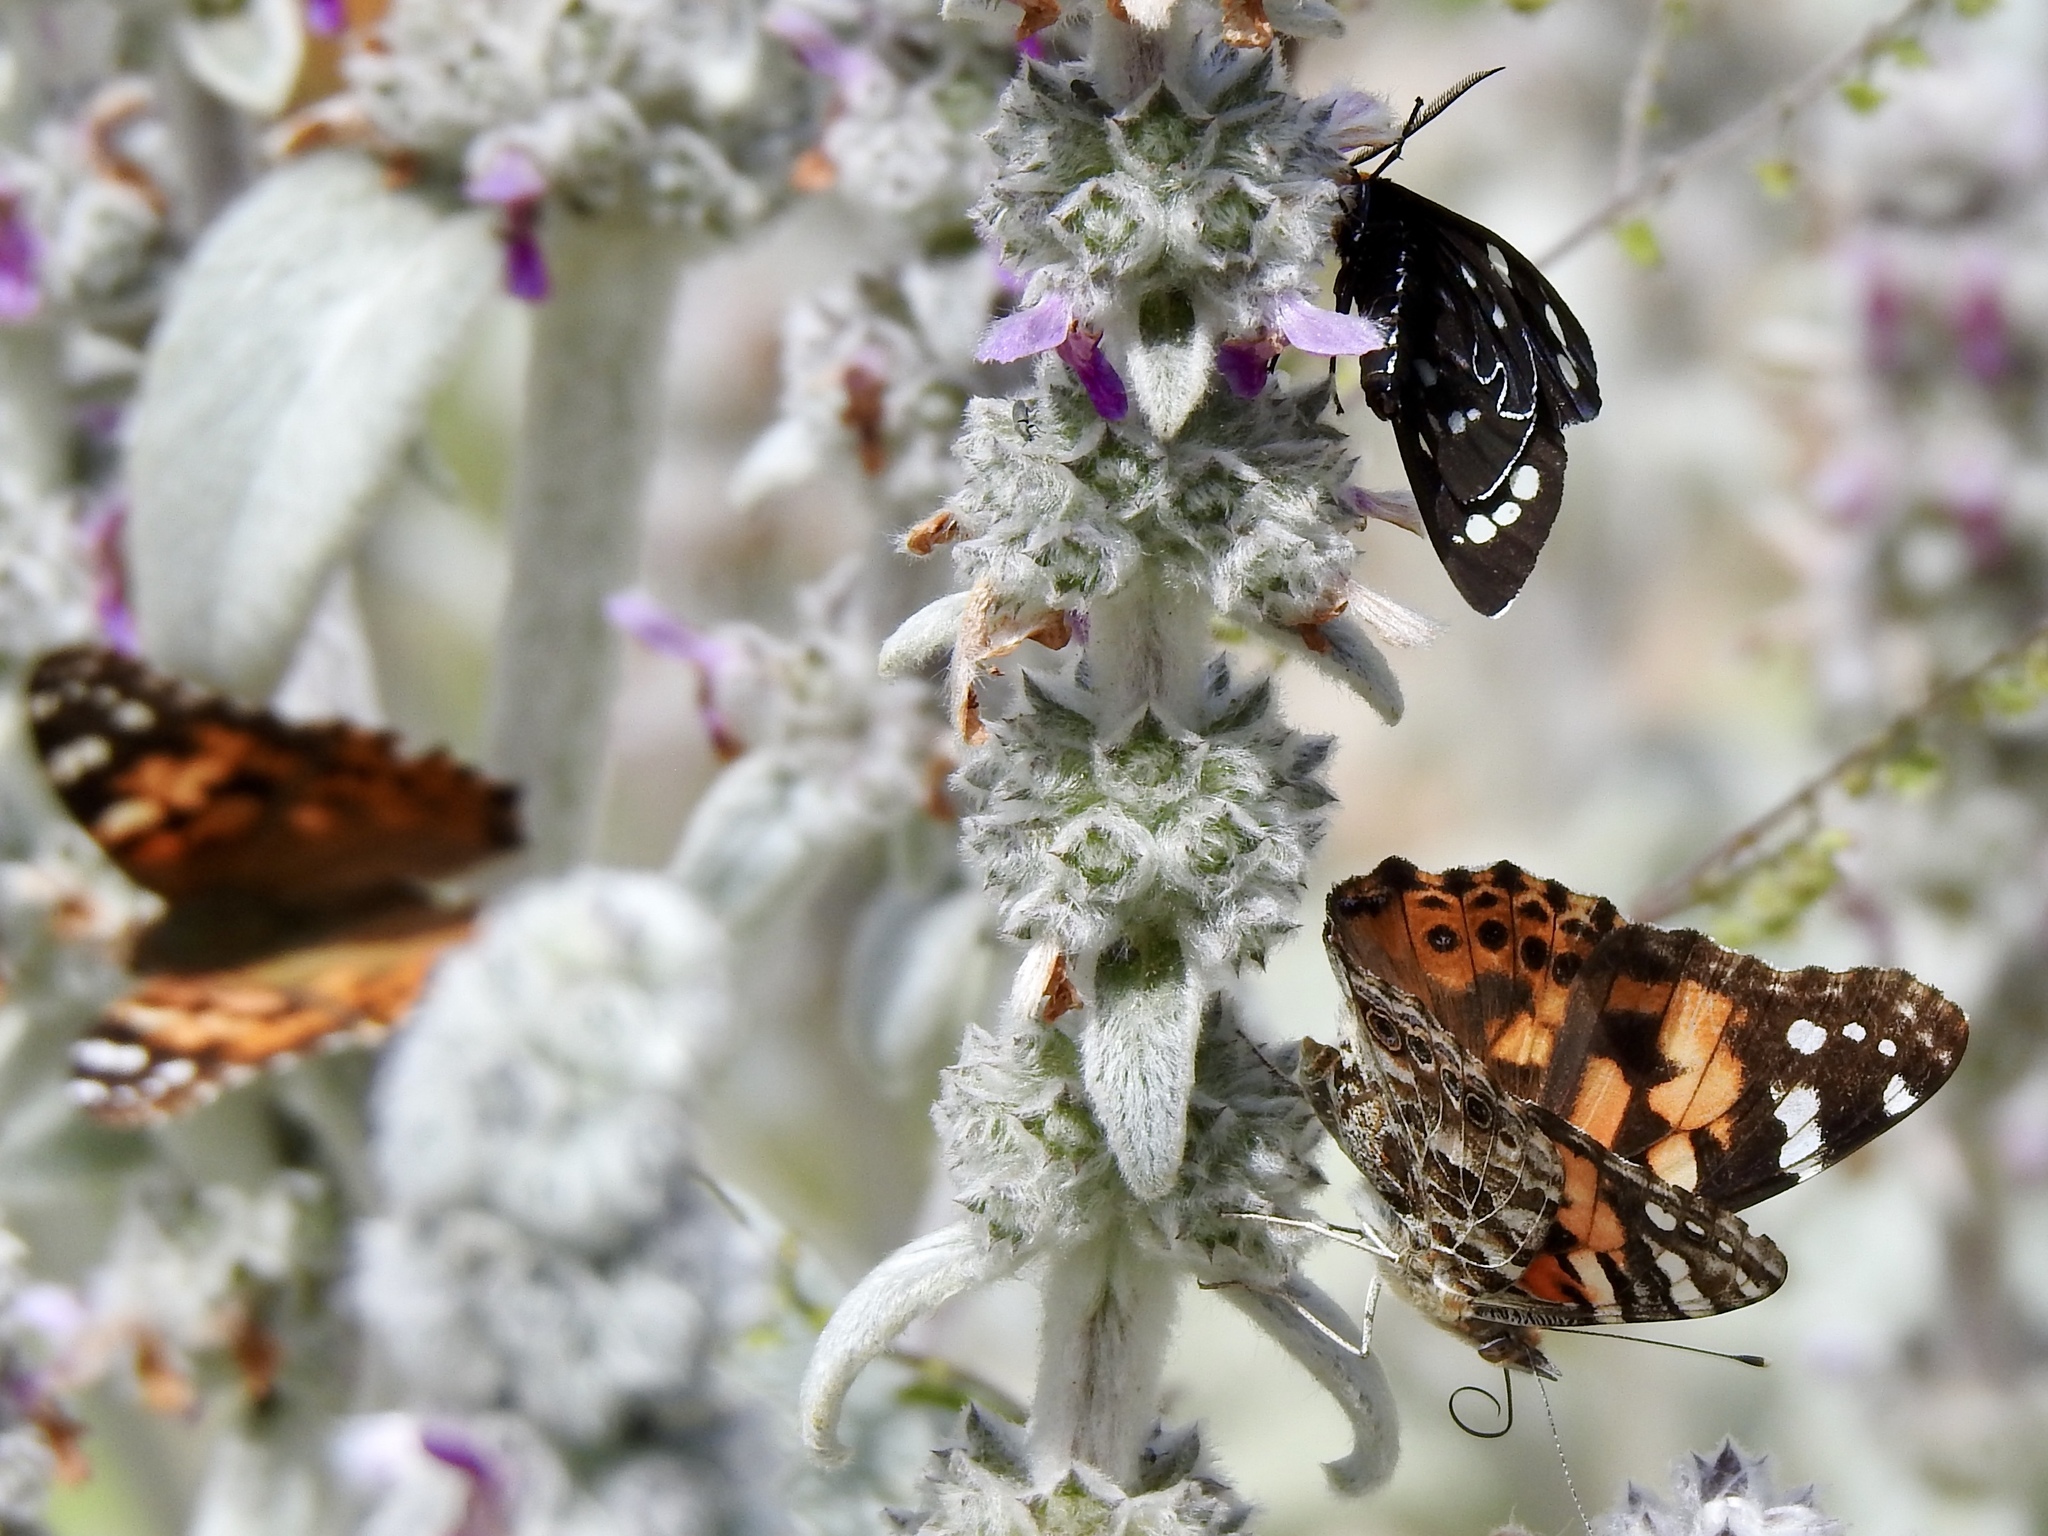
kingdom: Animalia
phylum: Arthropoda
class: Insecta
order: Lepidoptera
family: Nymphalidae
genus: Vanessa
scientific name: Vanessa cardui
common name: Painted lady
